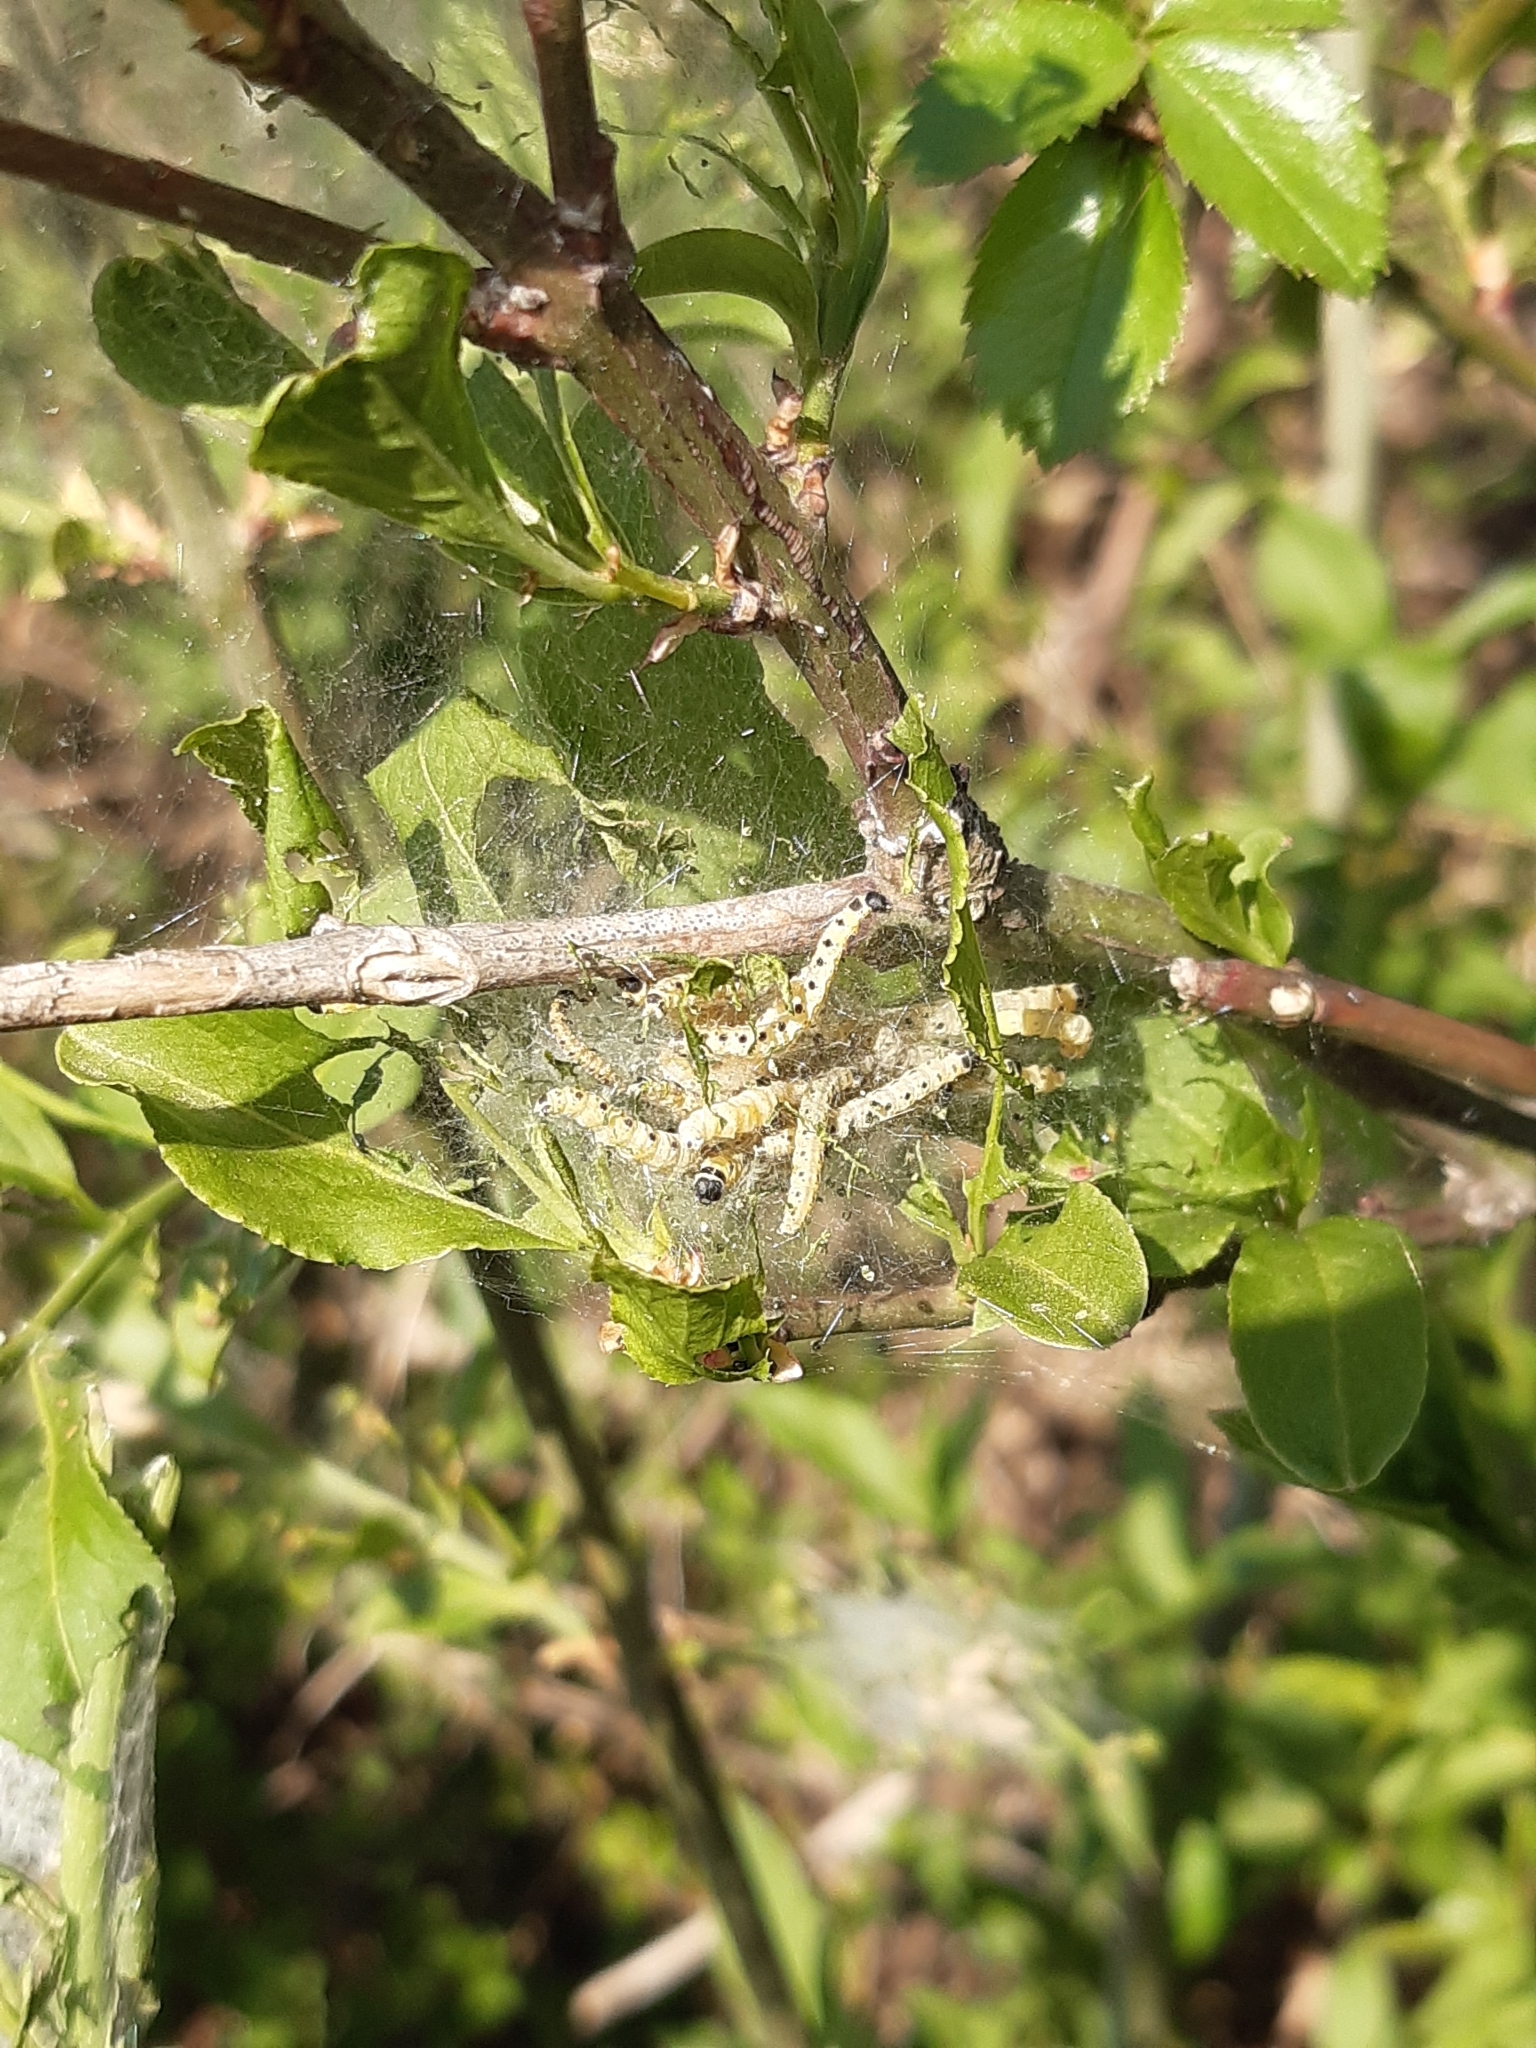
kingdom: Animalia
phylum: Arthropoda
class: Insecta
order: Lepidoptera
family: Yponomeutidae
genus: Yponomeuta
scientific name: Yponomeuta cagnagellus
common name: Spindle ermine
